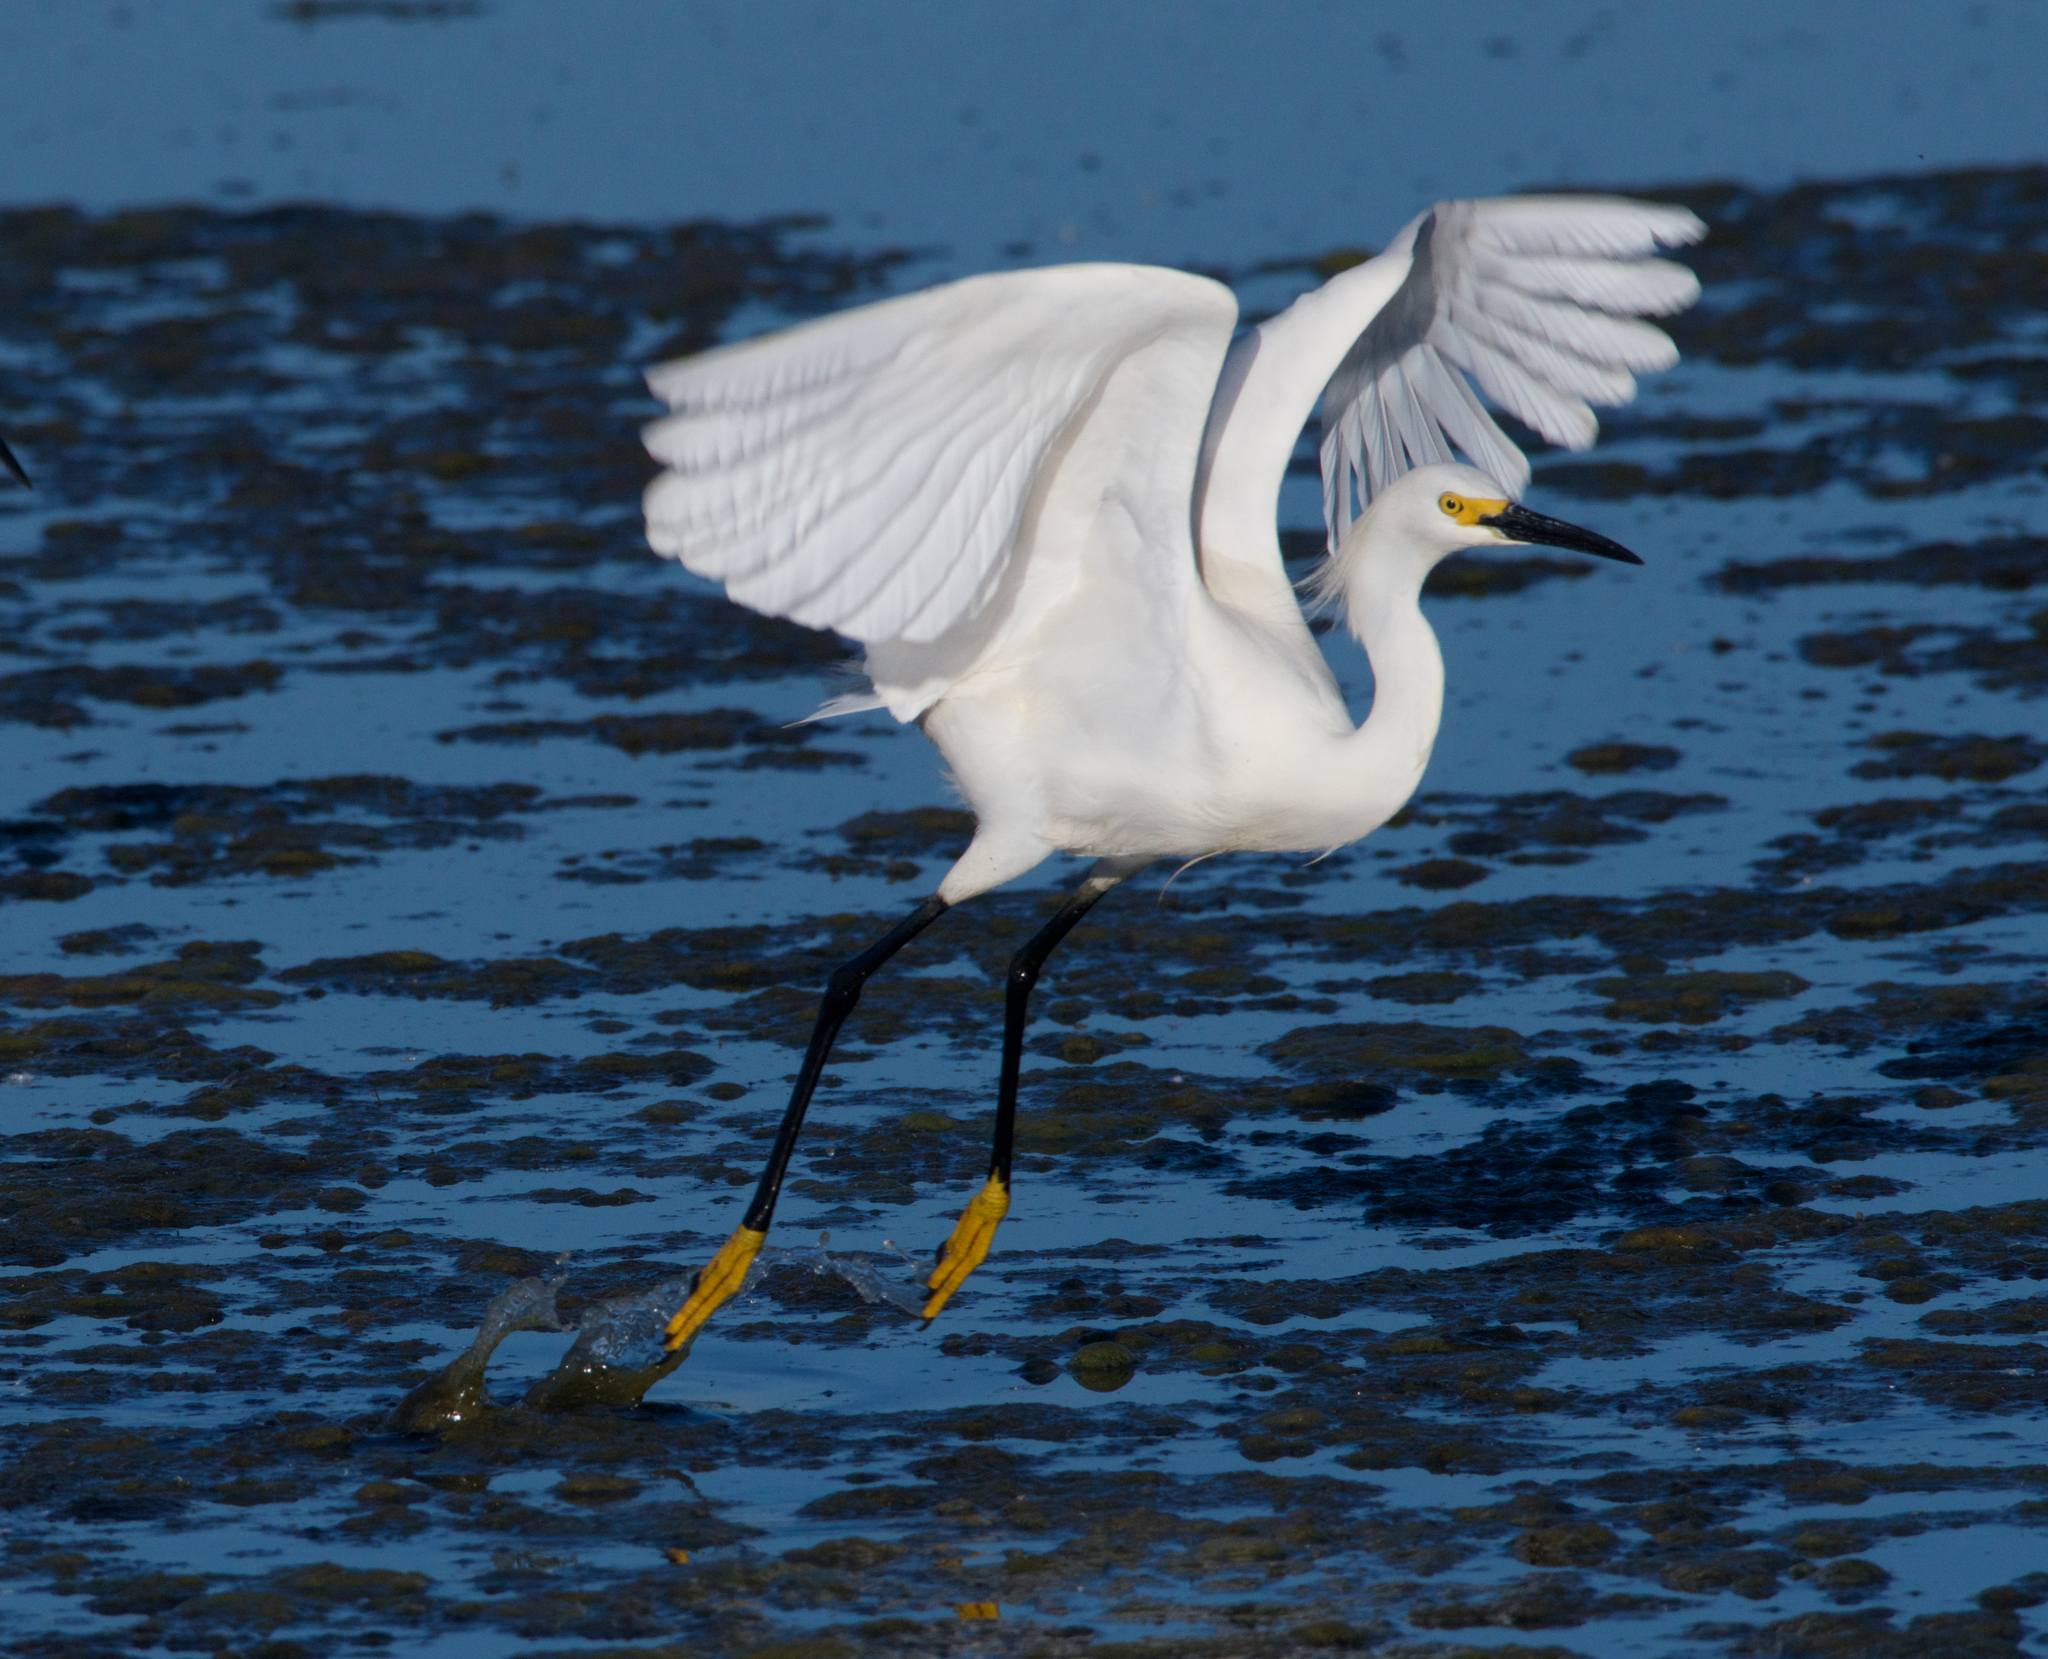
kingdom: Animalia
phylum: Chordata
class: Aves
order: Pelecaniformes
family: Ardeidae
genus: Egretta
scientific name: Egretta thula
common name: Snowy egret
